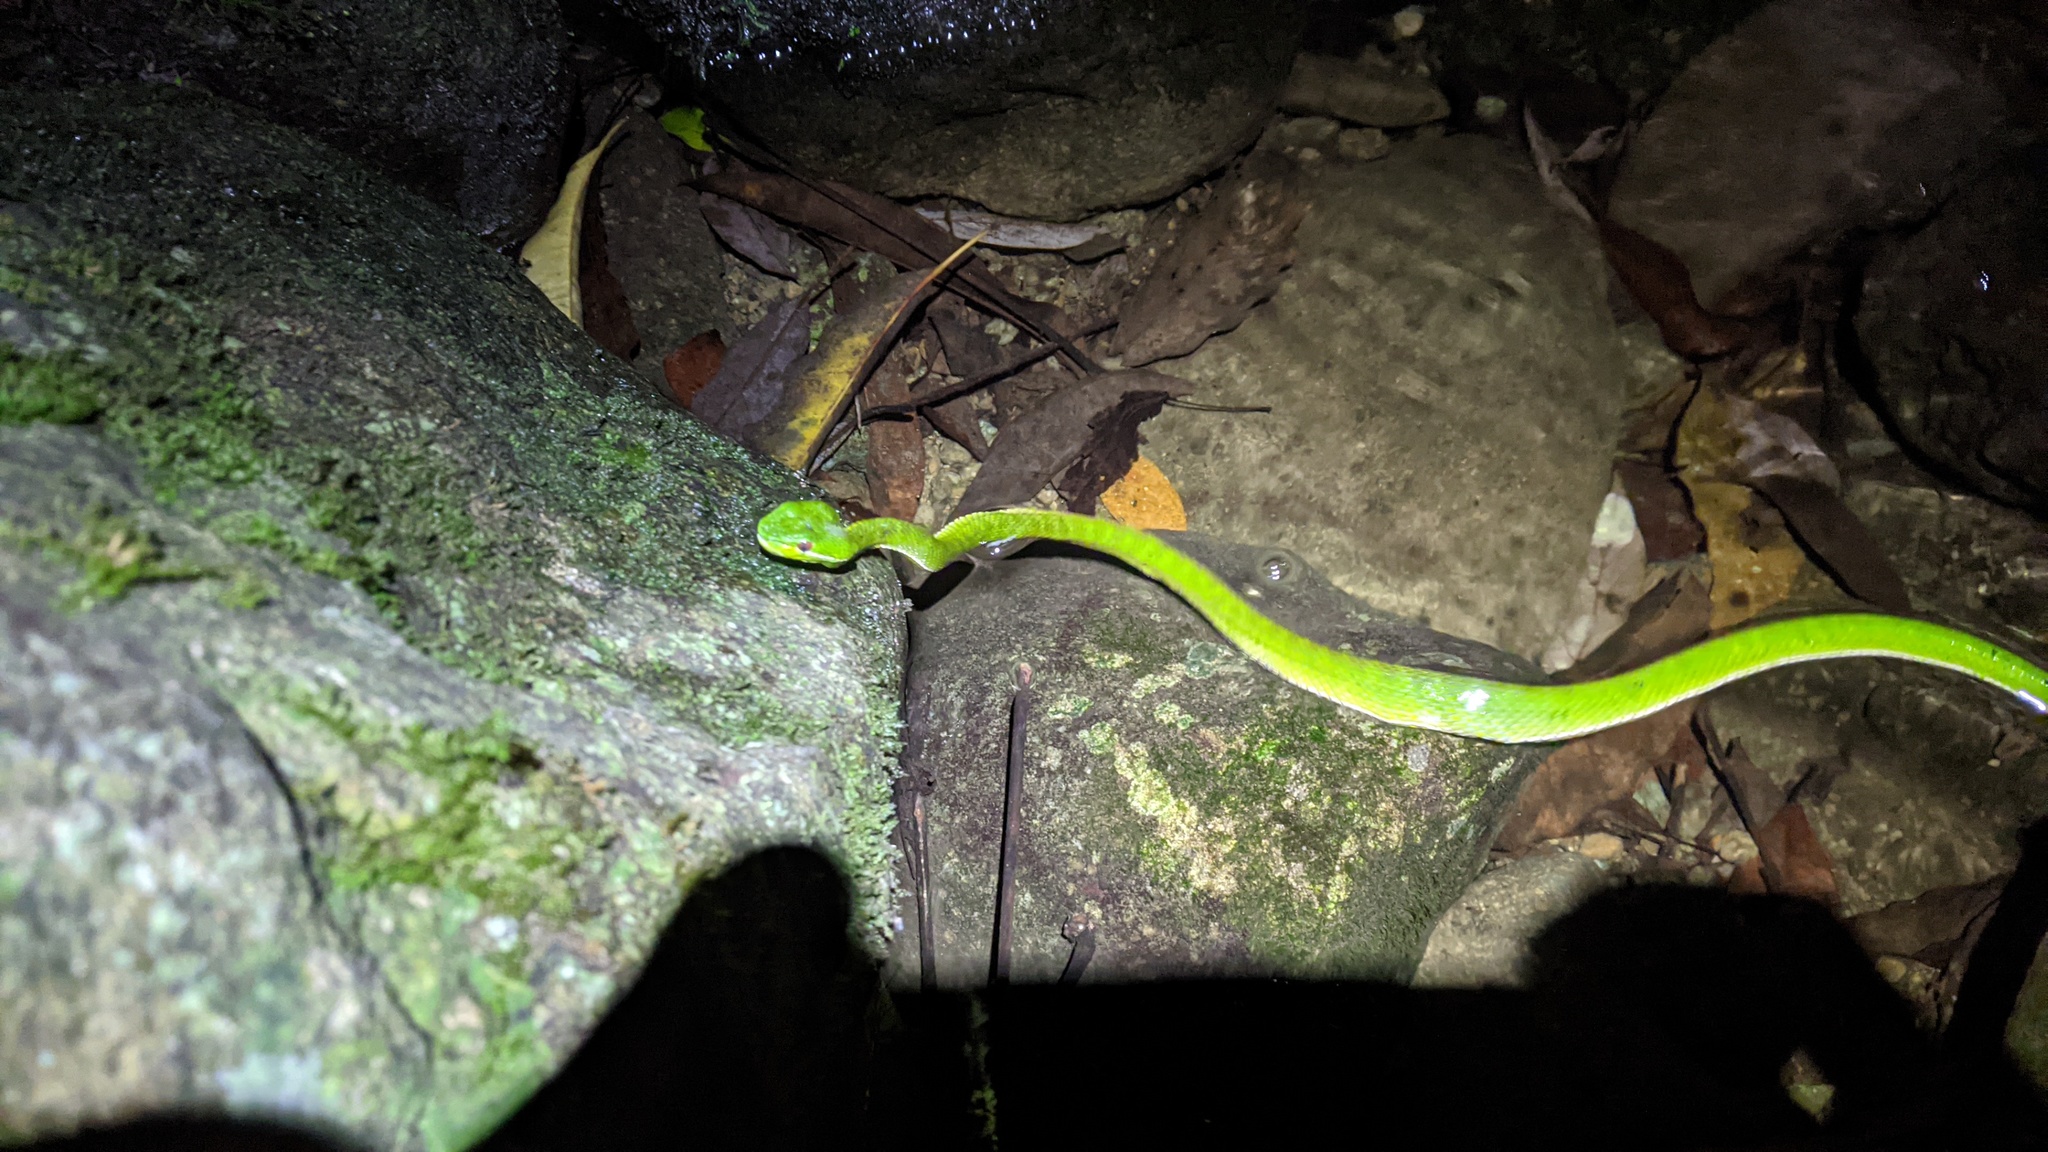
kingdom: Animalia
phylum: Chordata
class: Squamata
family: Viperidae
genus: Trimeresurus
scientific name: Trimeresurus stejnegeri
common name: Chen’s bamboo pit viper
